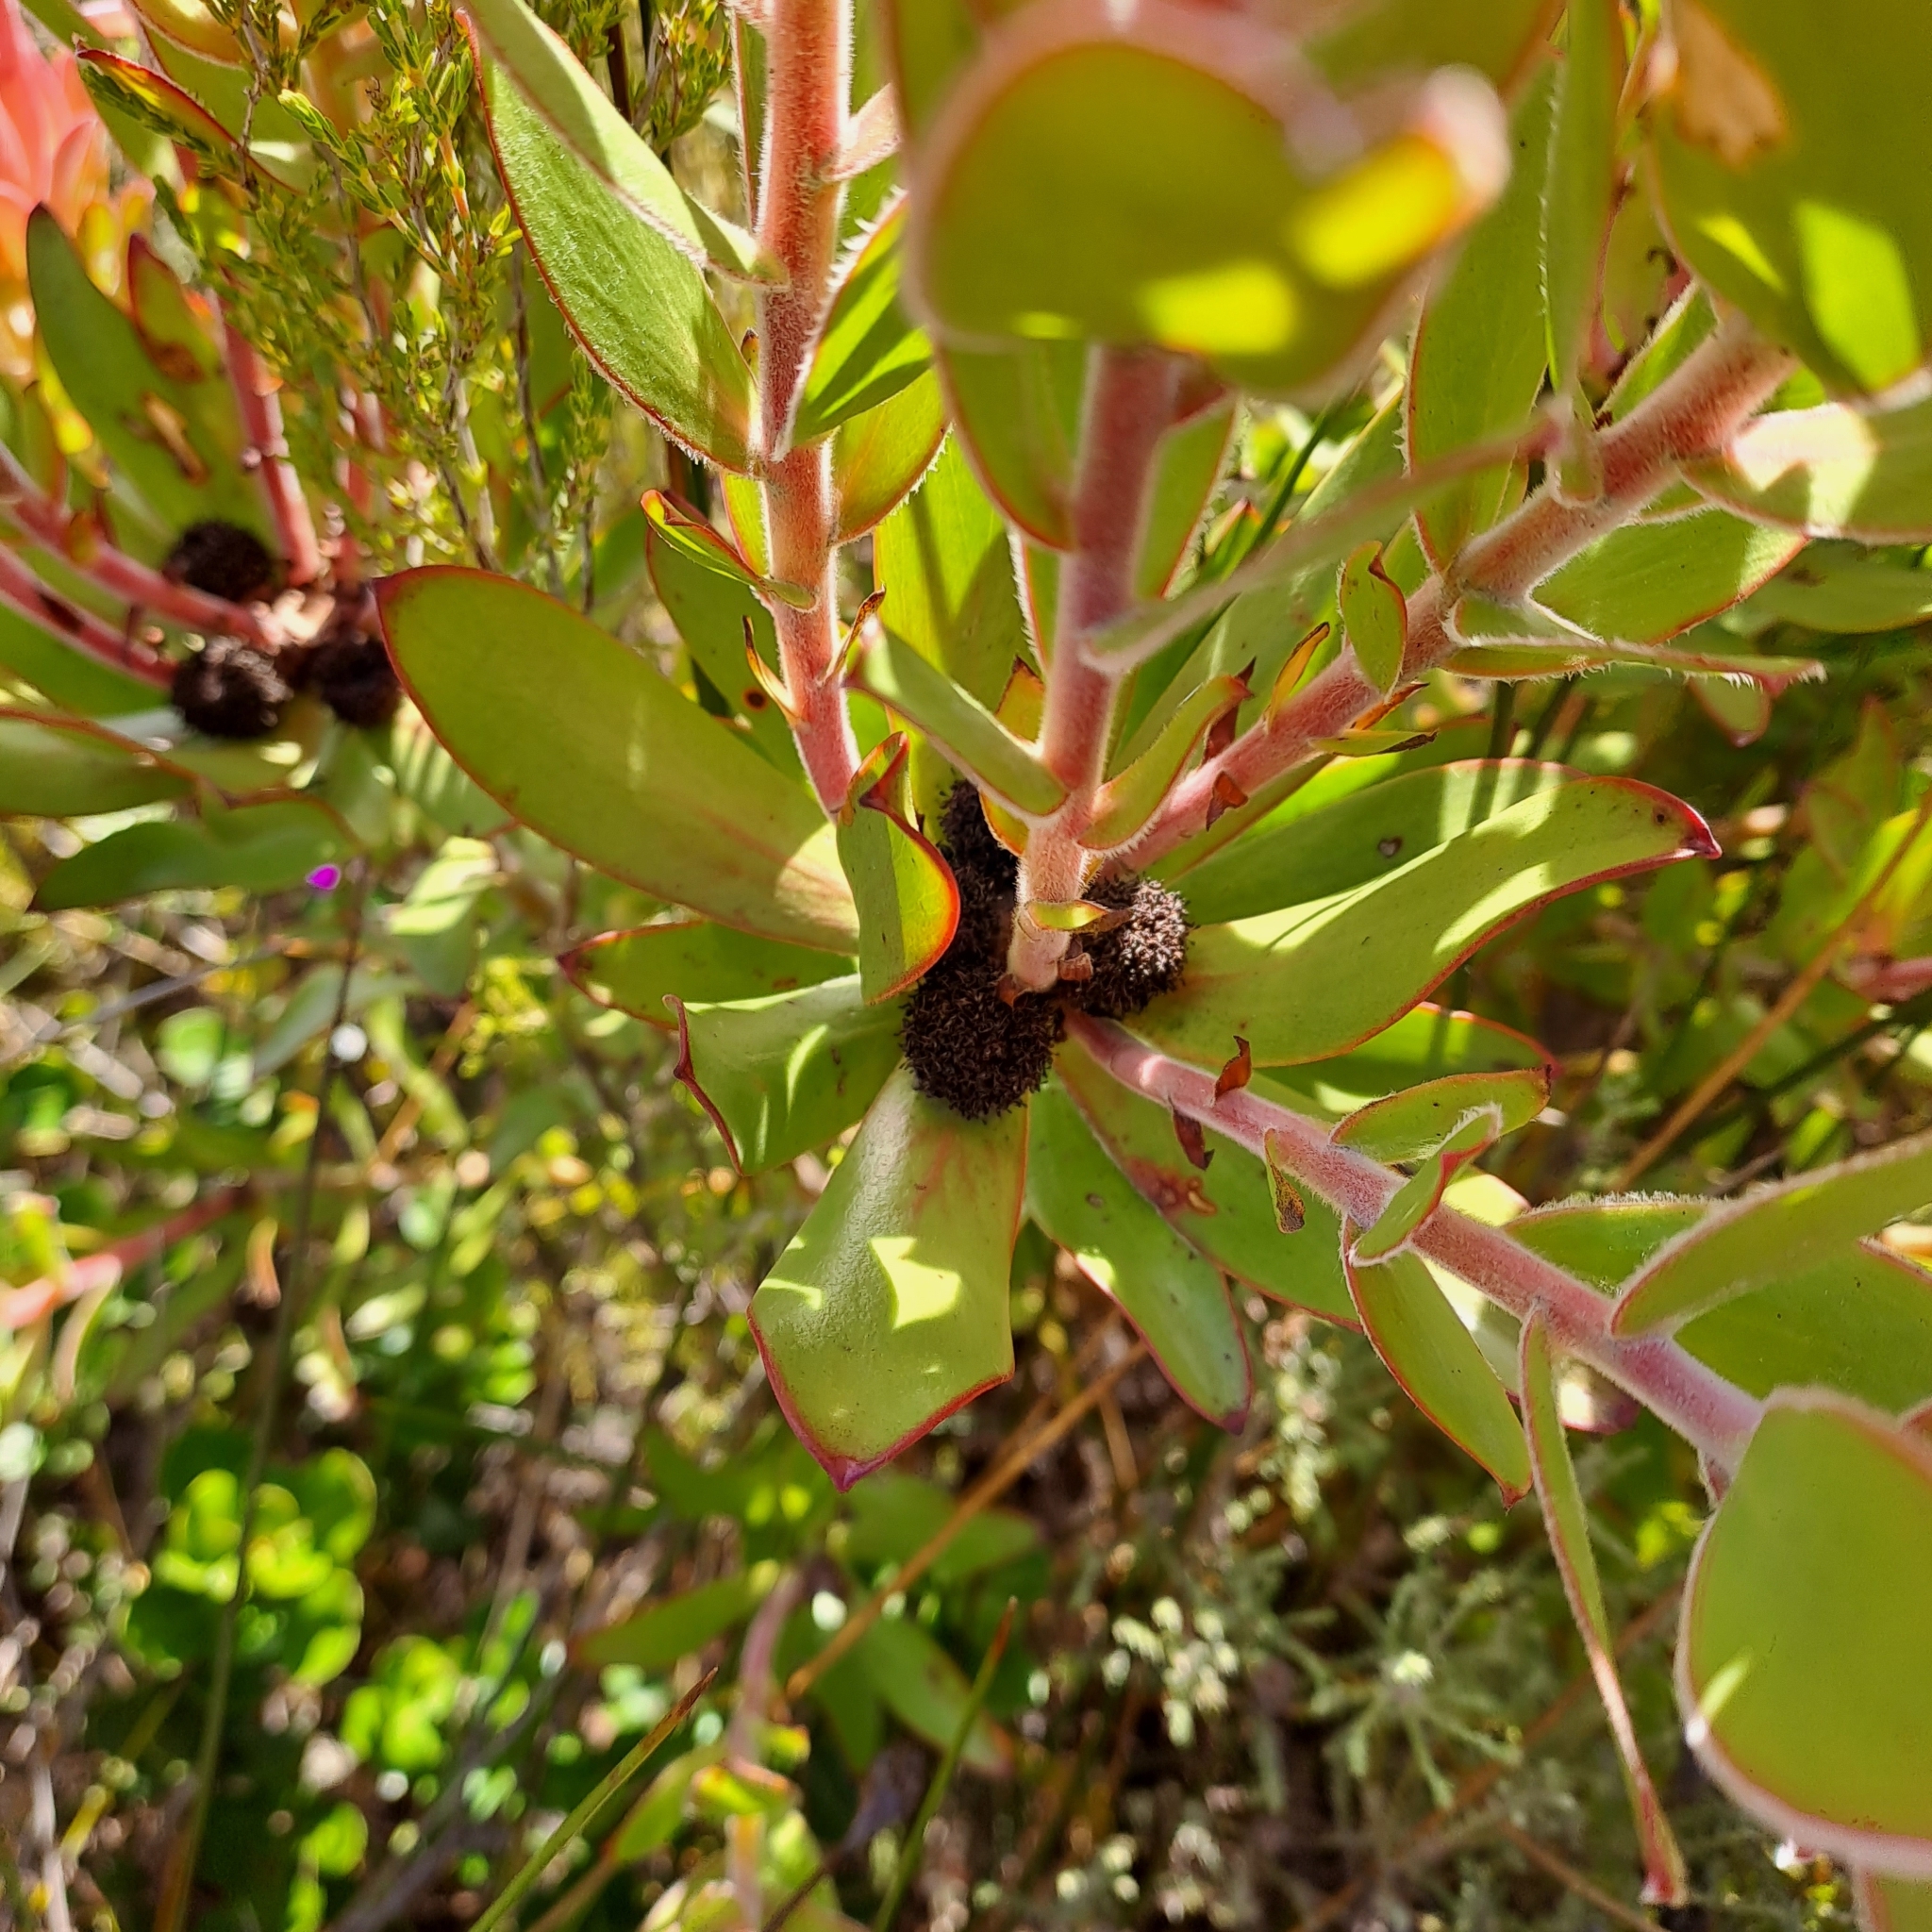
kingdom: Plantae
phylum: Tracheophyta
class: Magnoliopsida
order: Proteales
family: Proteaceae
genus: Leucadendron
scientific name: Leucadendron gandogeri
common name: Broad-leaf conebush
